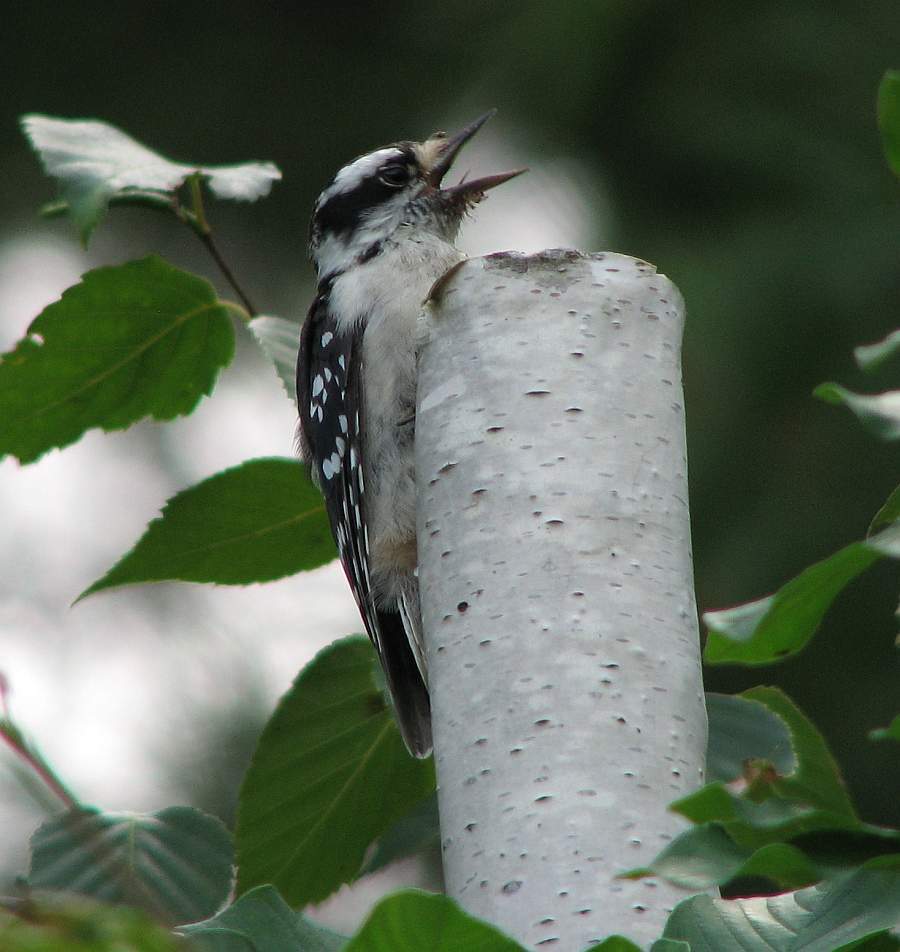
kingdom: Animalia
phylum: Chordata
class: Aves
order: Piciformes
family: Picidae
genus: Dryobates
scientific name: Dryobates pubescens
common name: Downy woodpecker
